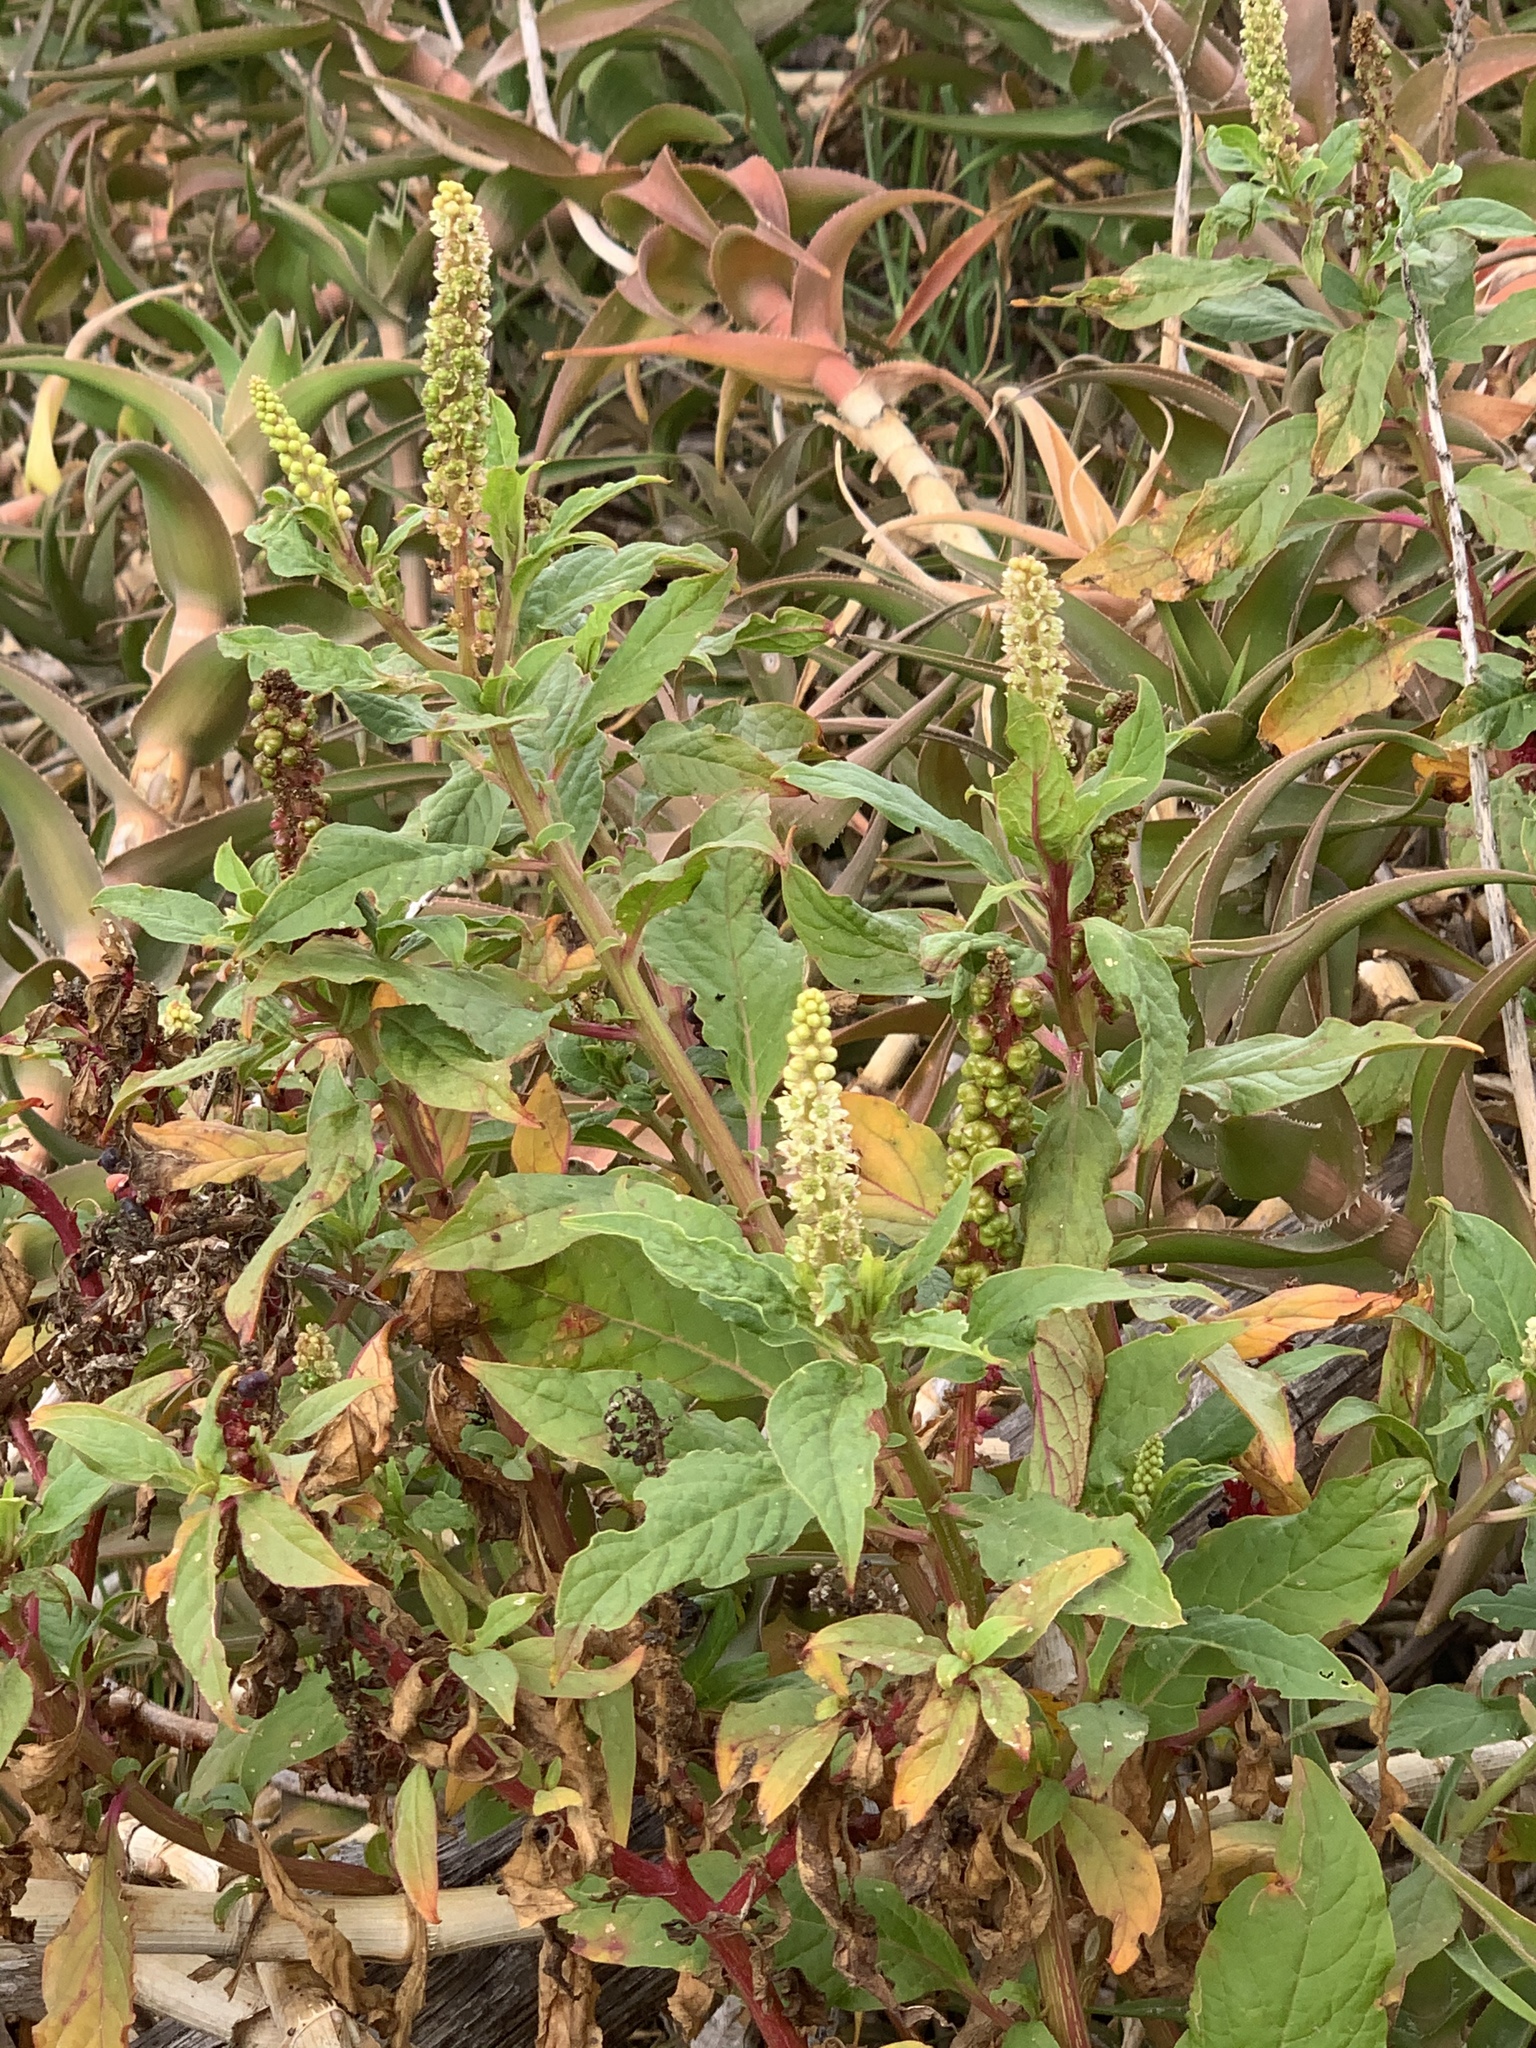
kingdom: Plantae
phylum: Tracheophyta
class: Magnoliopsida
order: Caryophyllales
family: Phytolaccaceae
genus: Phytolacca
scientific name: Phytolacca icosandra
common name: Button pokeweed
